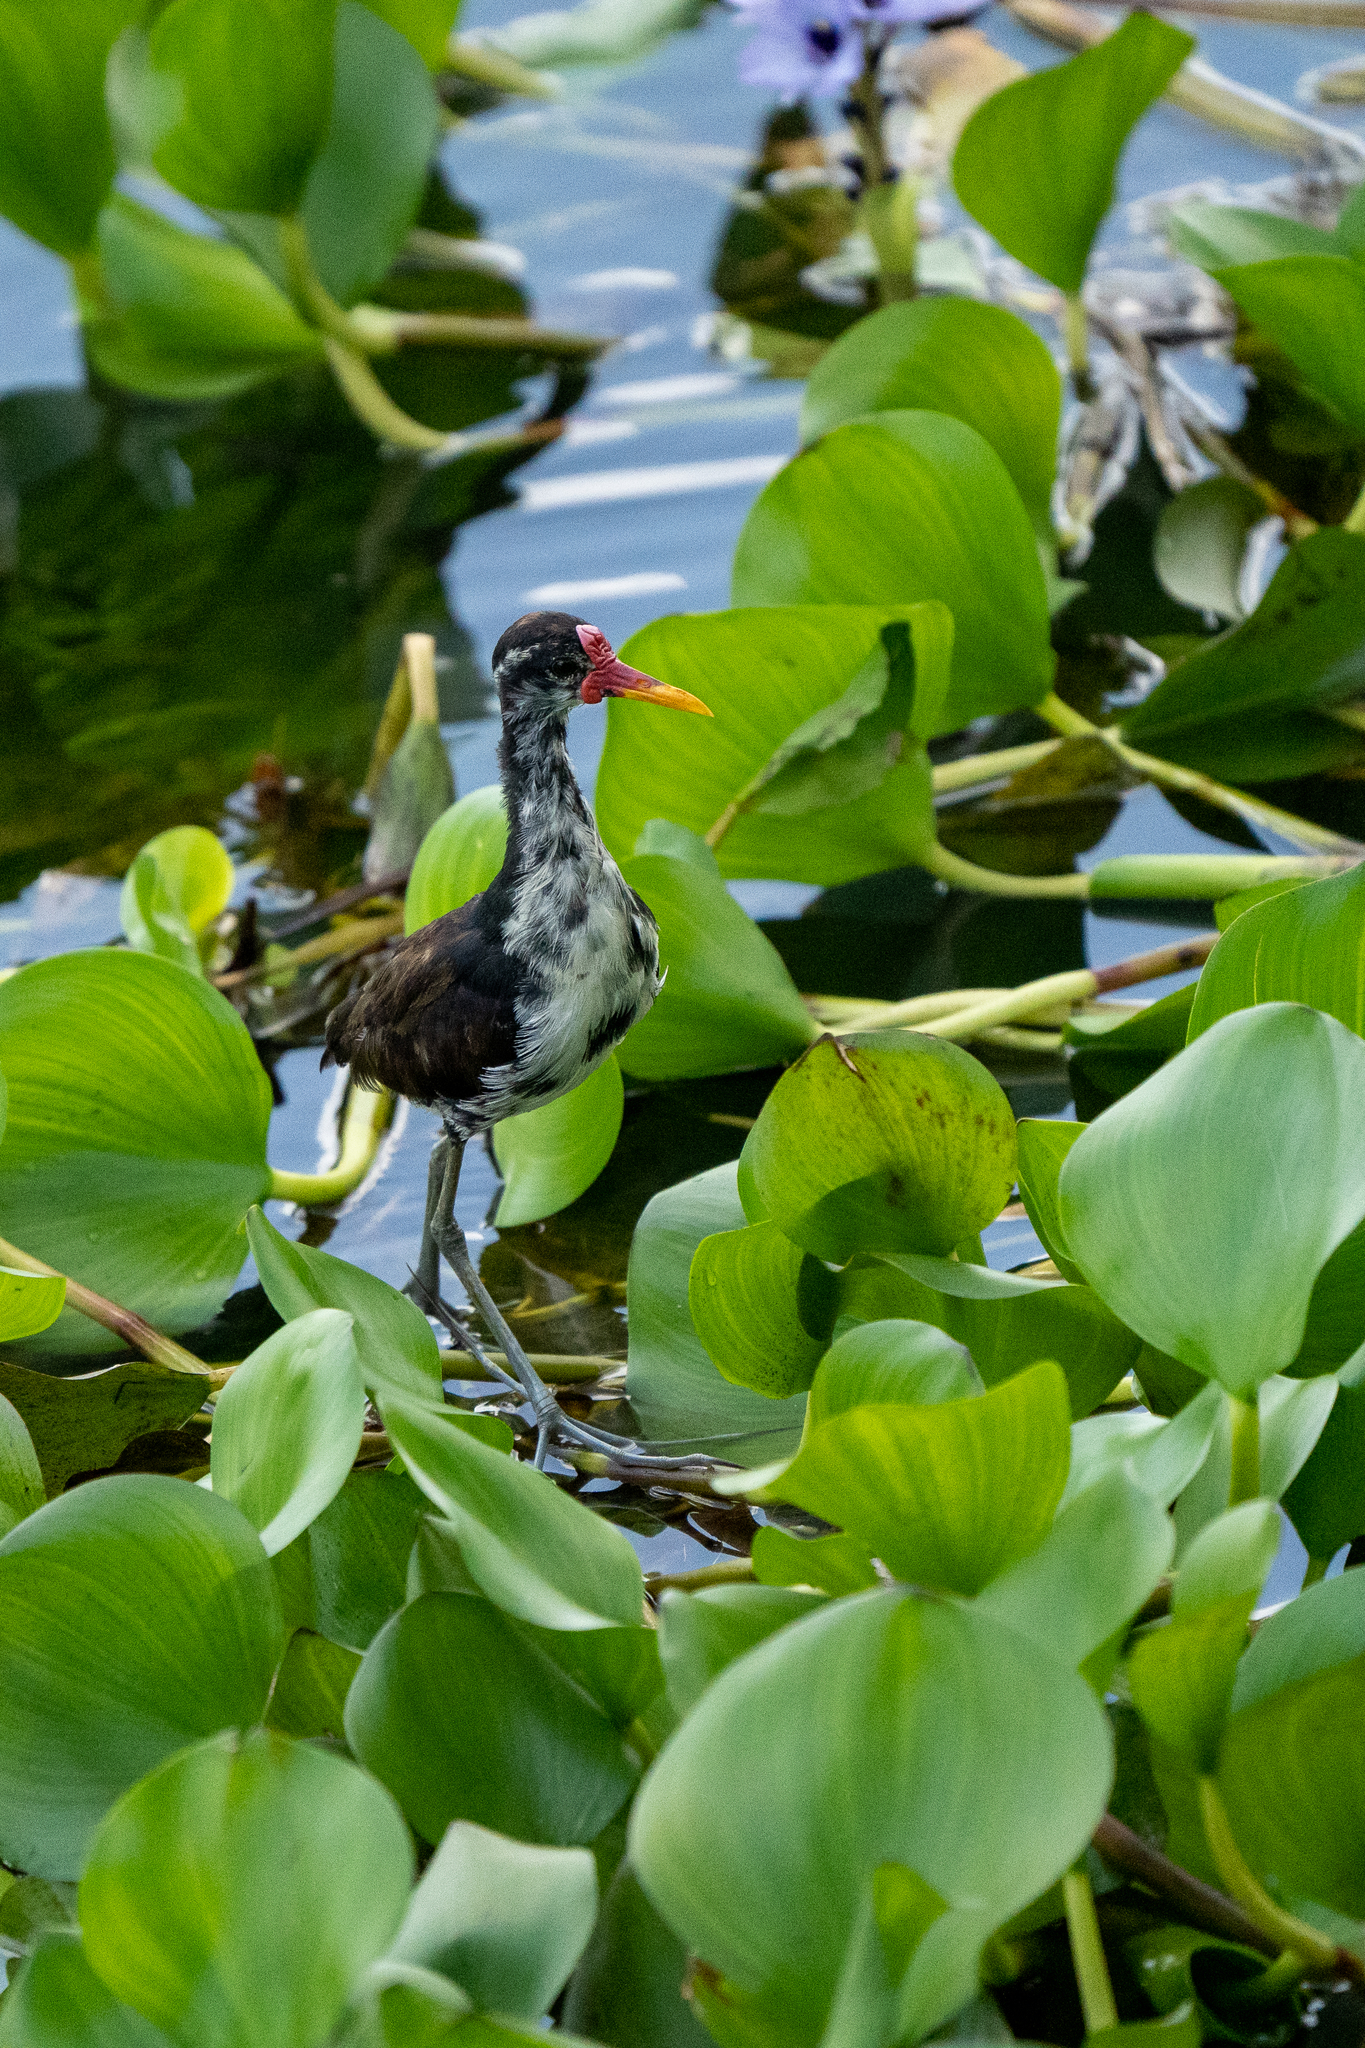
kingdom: Animalia
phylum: Chordata
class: Aves
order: Charadriiformes
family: Jacanidae
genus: Jacana
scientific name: Jacana jacana
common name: Wattled jacana
